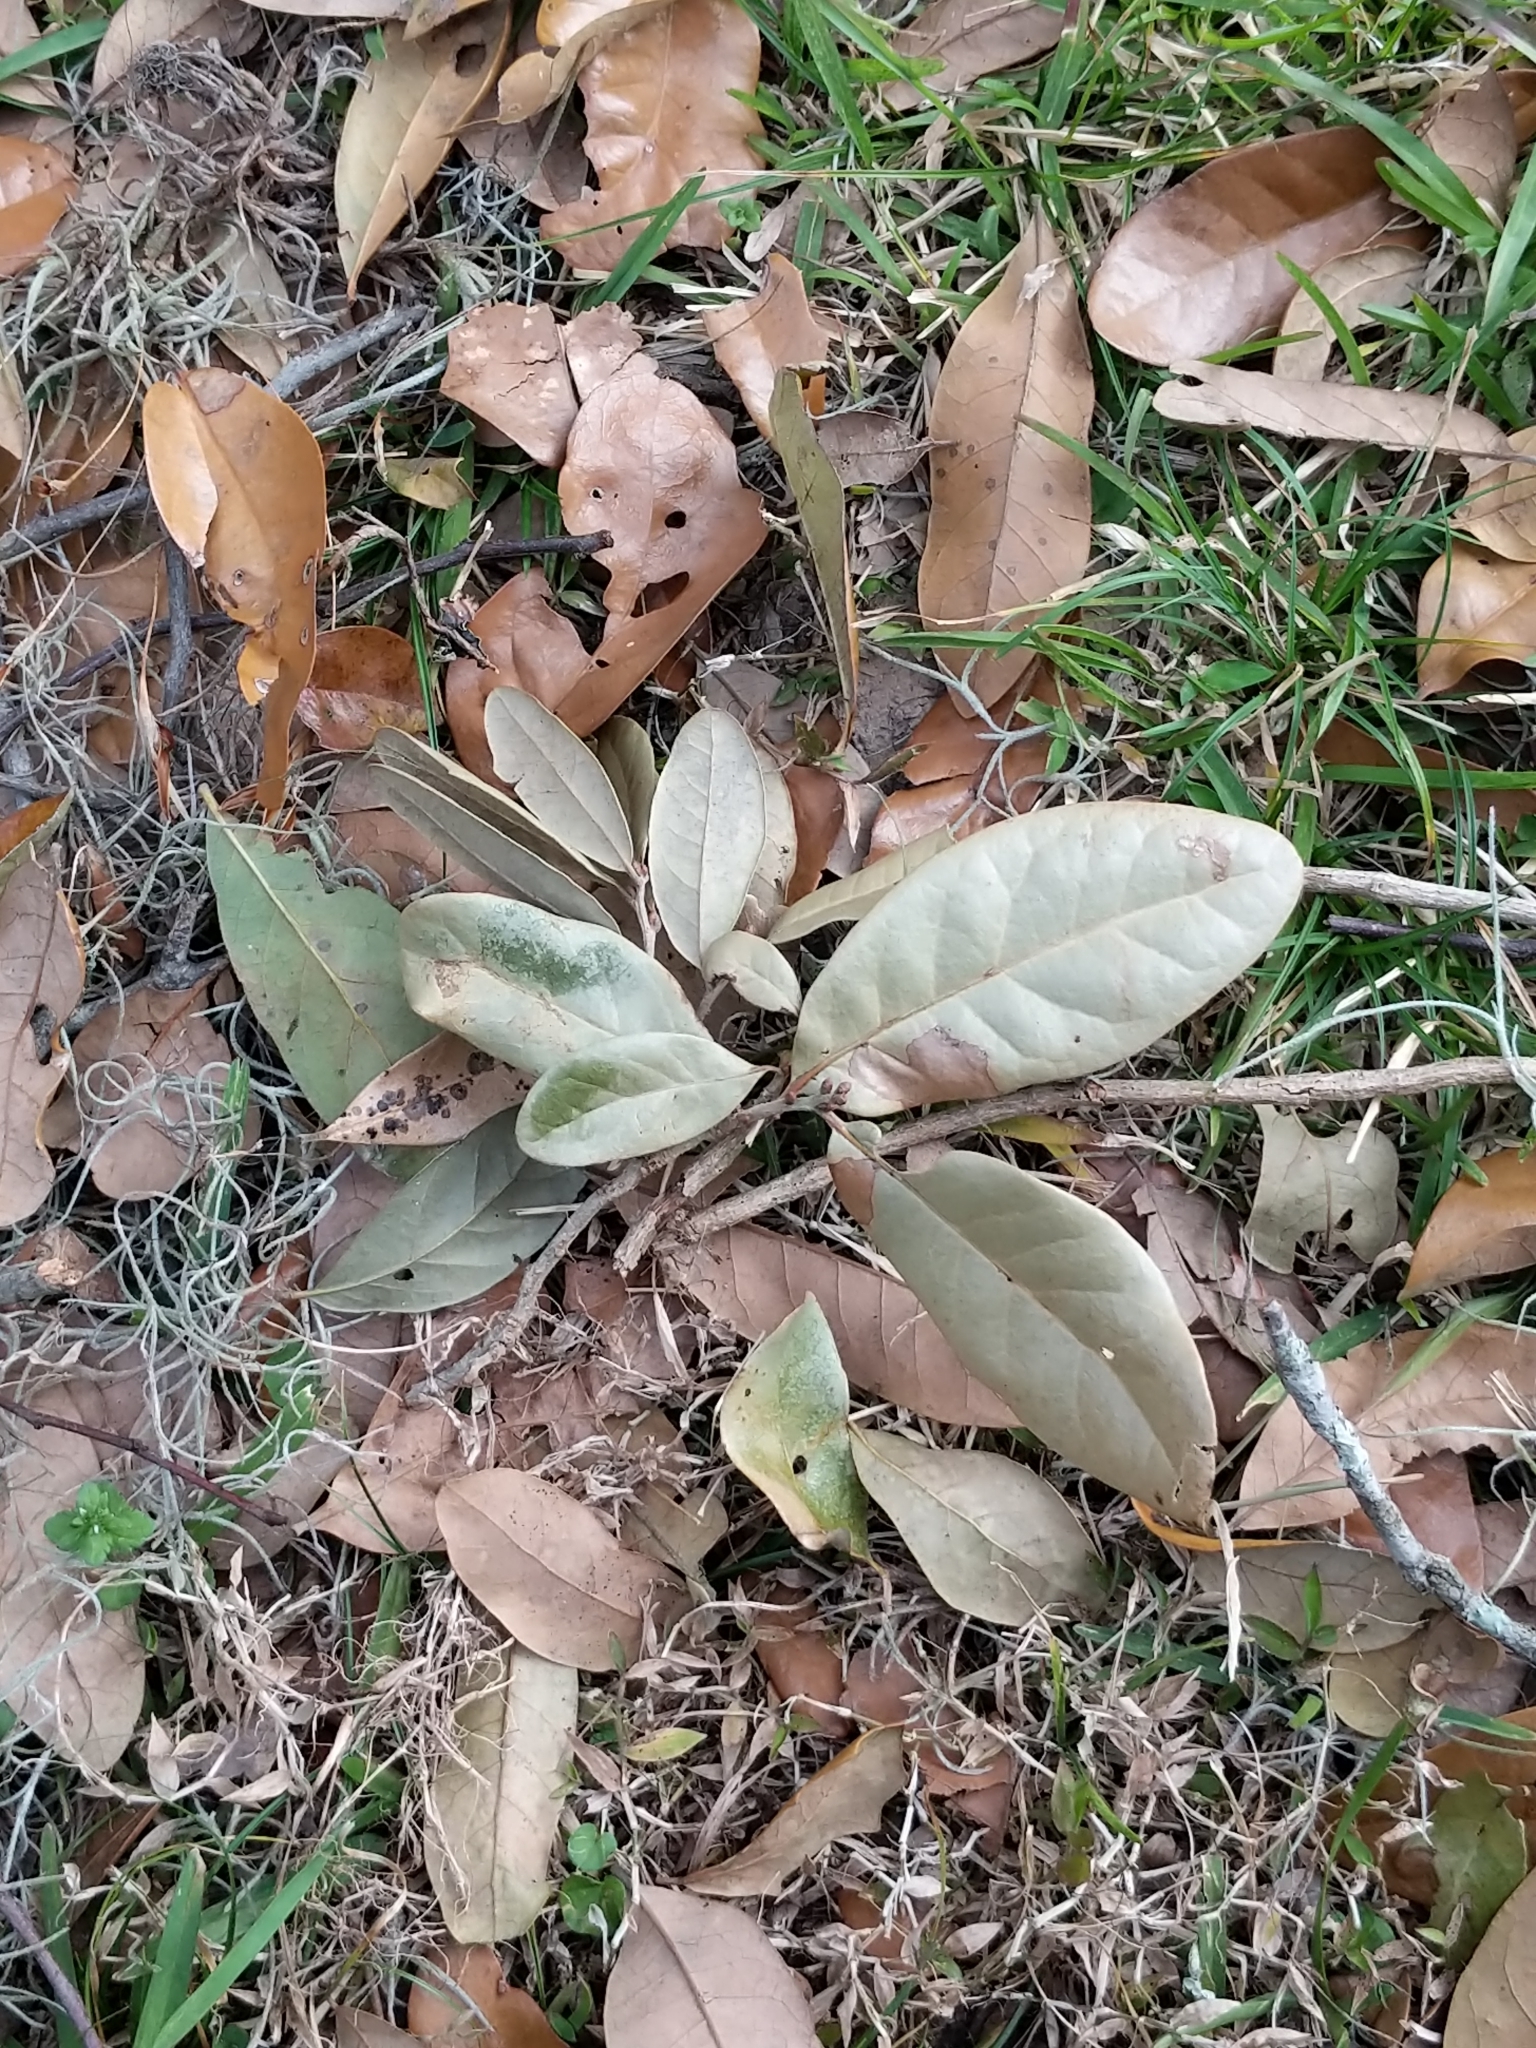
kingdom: Plantae
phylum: Tracheophyta
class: Magnoliopsida
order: Fagales
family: Fagaceae
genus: Quercus
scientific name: Quercus virginiana
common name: Southern live oak
